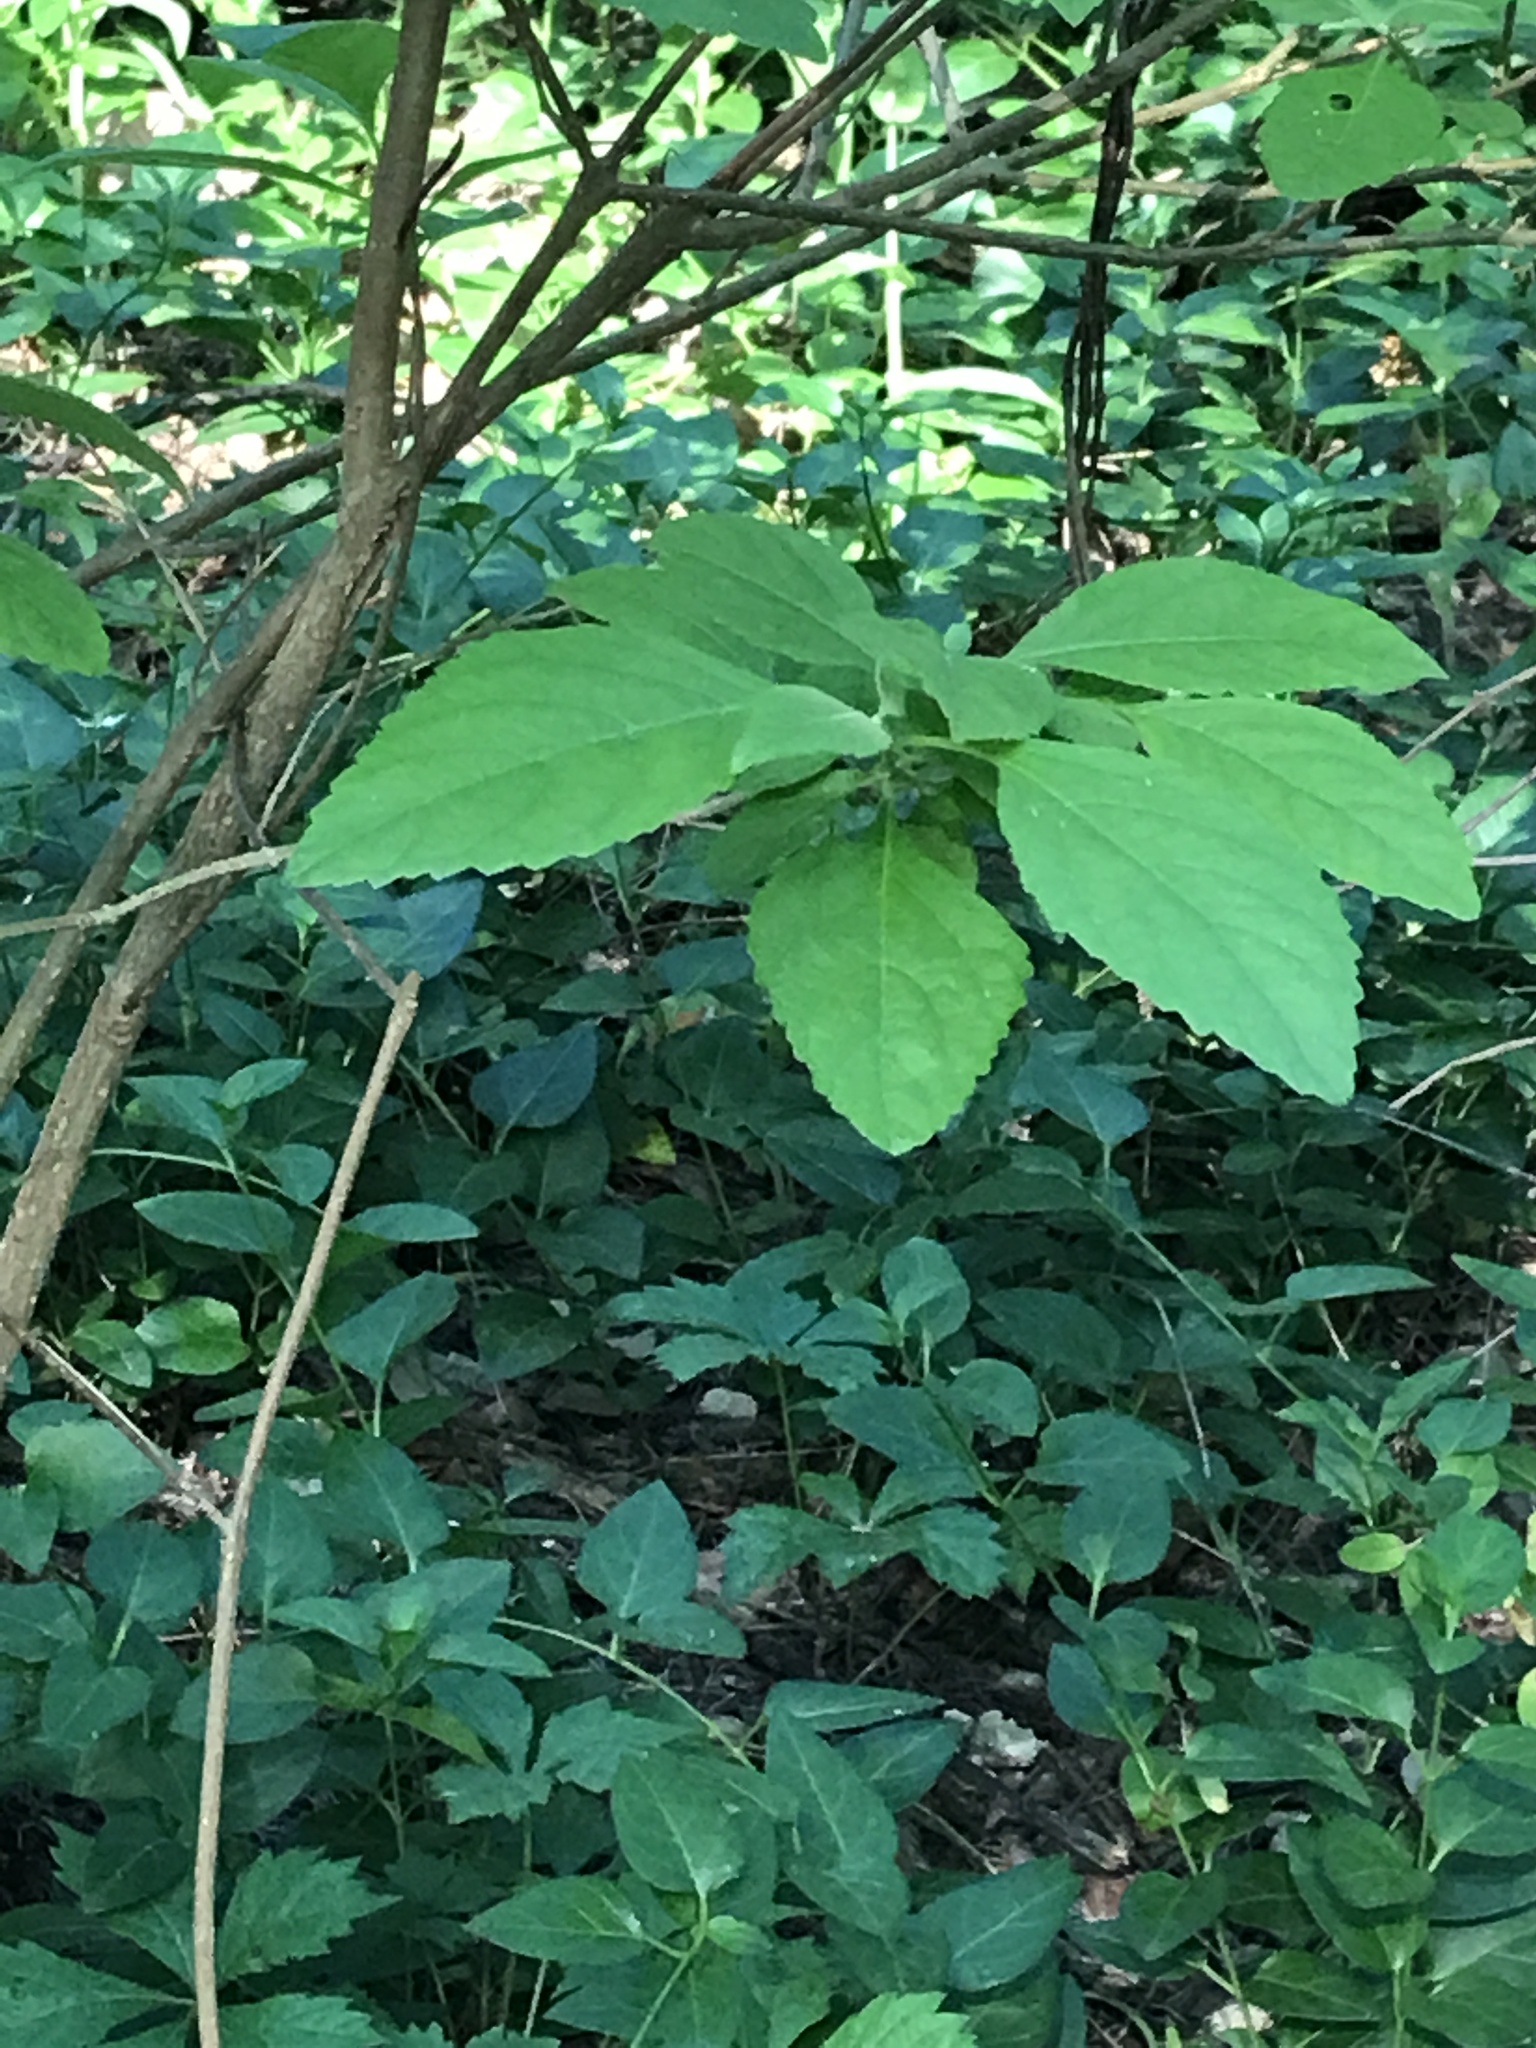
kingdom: Plantae
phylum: Tracheophyta
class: Magnoliopsida
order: Lamiales
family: Lamiaceae
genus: Callicarpa
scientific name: Callicarpa americana
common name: American beautyberry
